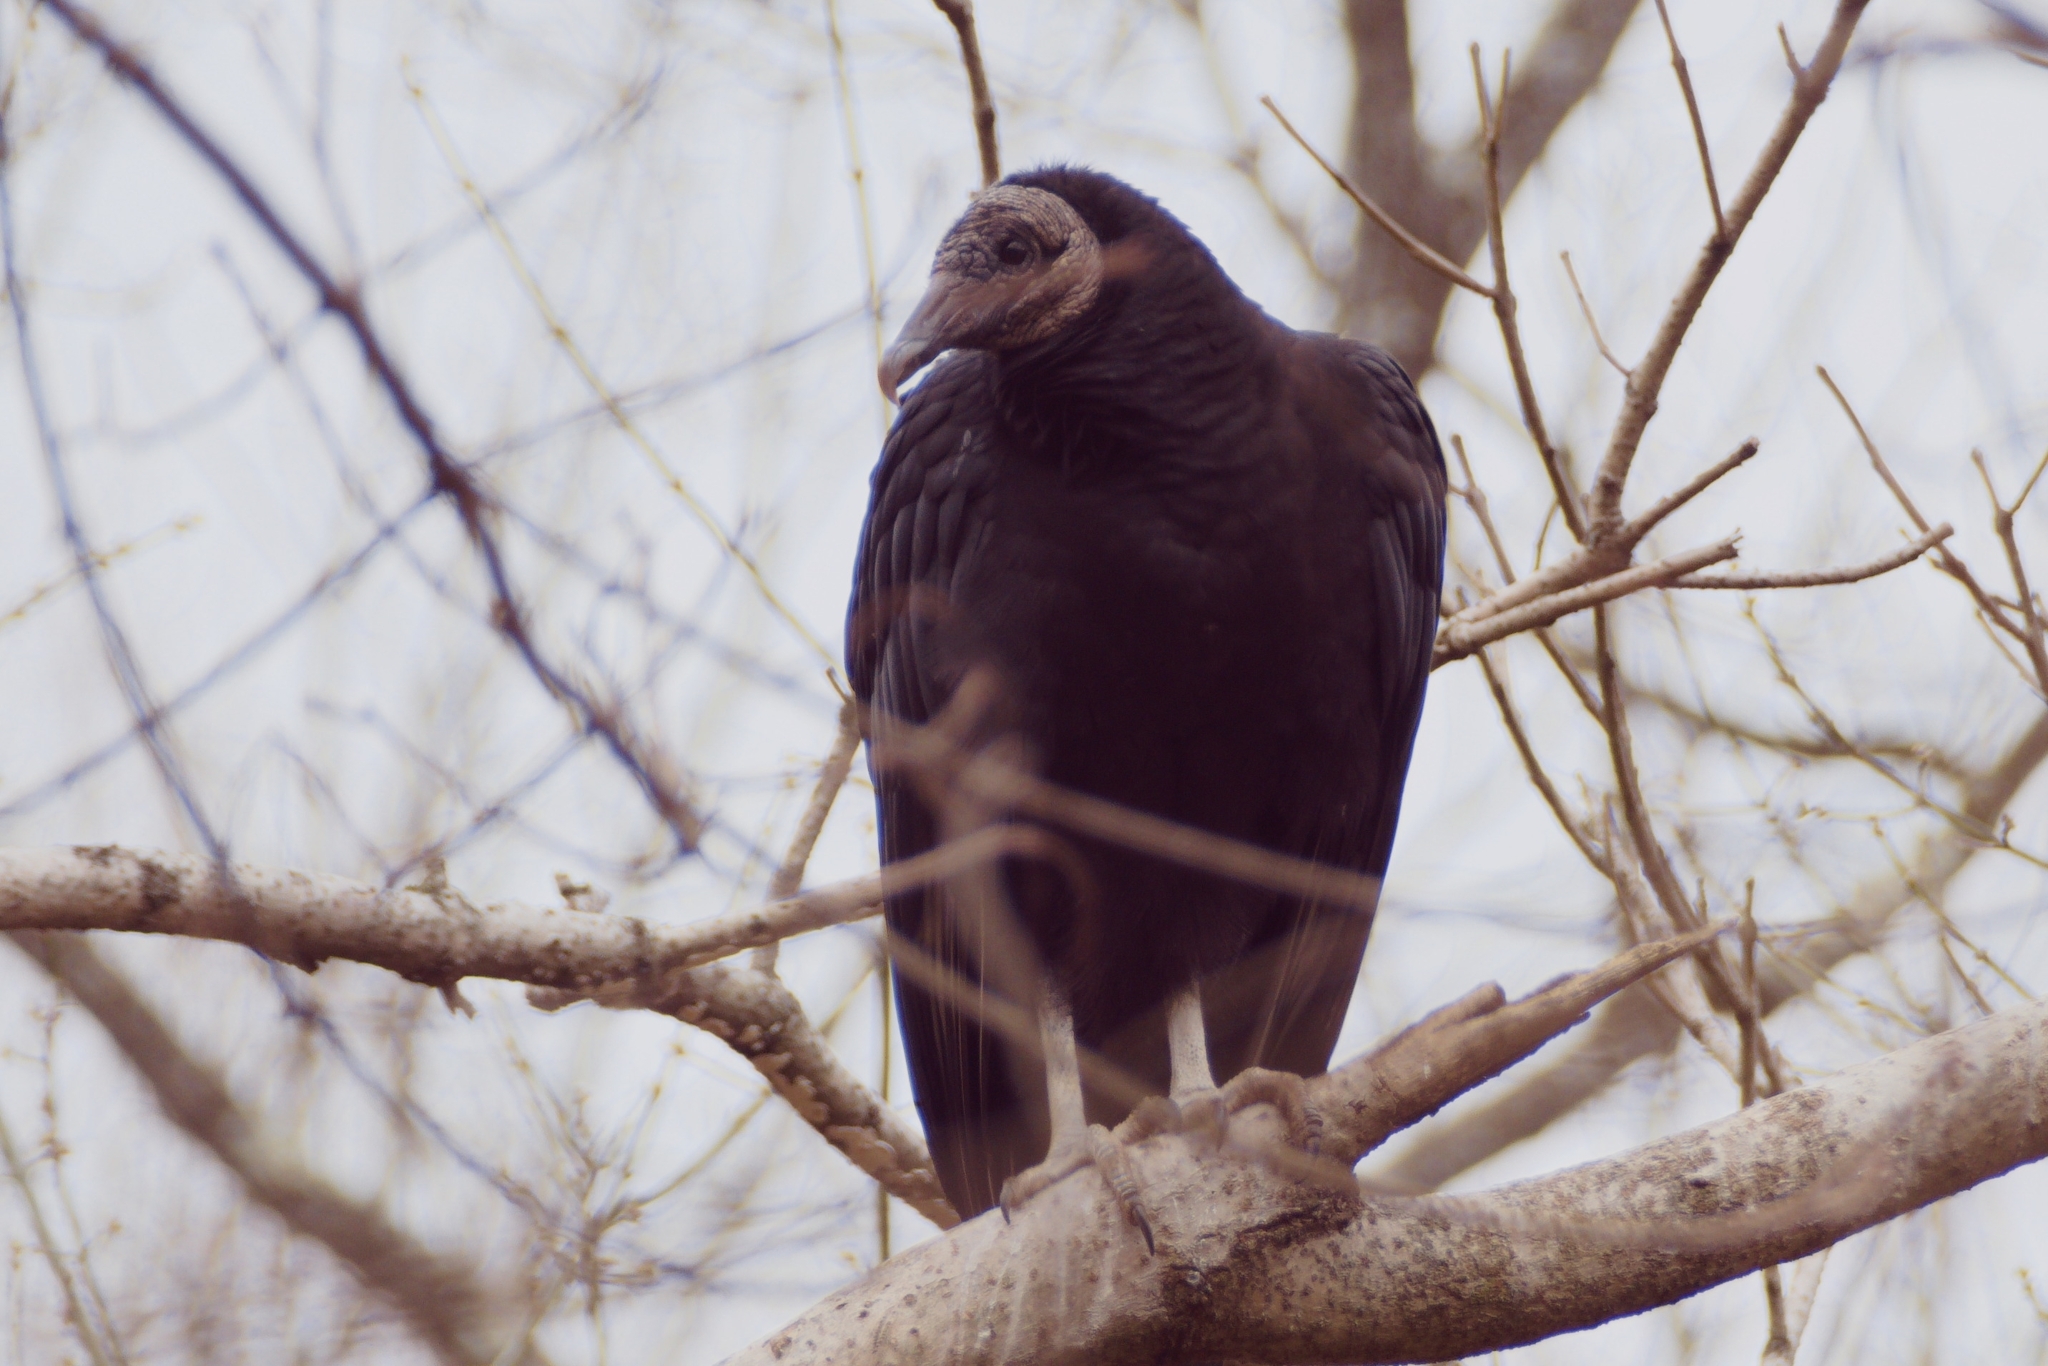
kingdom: Animalia
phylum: Chordata
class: Aves
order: Accipitriformes
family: Cathartidae
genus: Coragyps
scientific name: Coragyps atratus
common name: Black vulture
